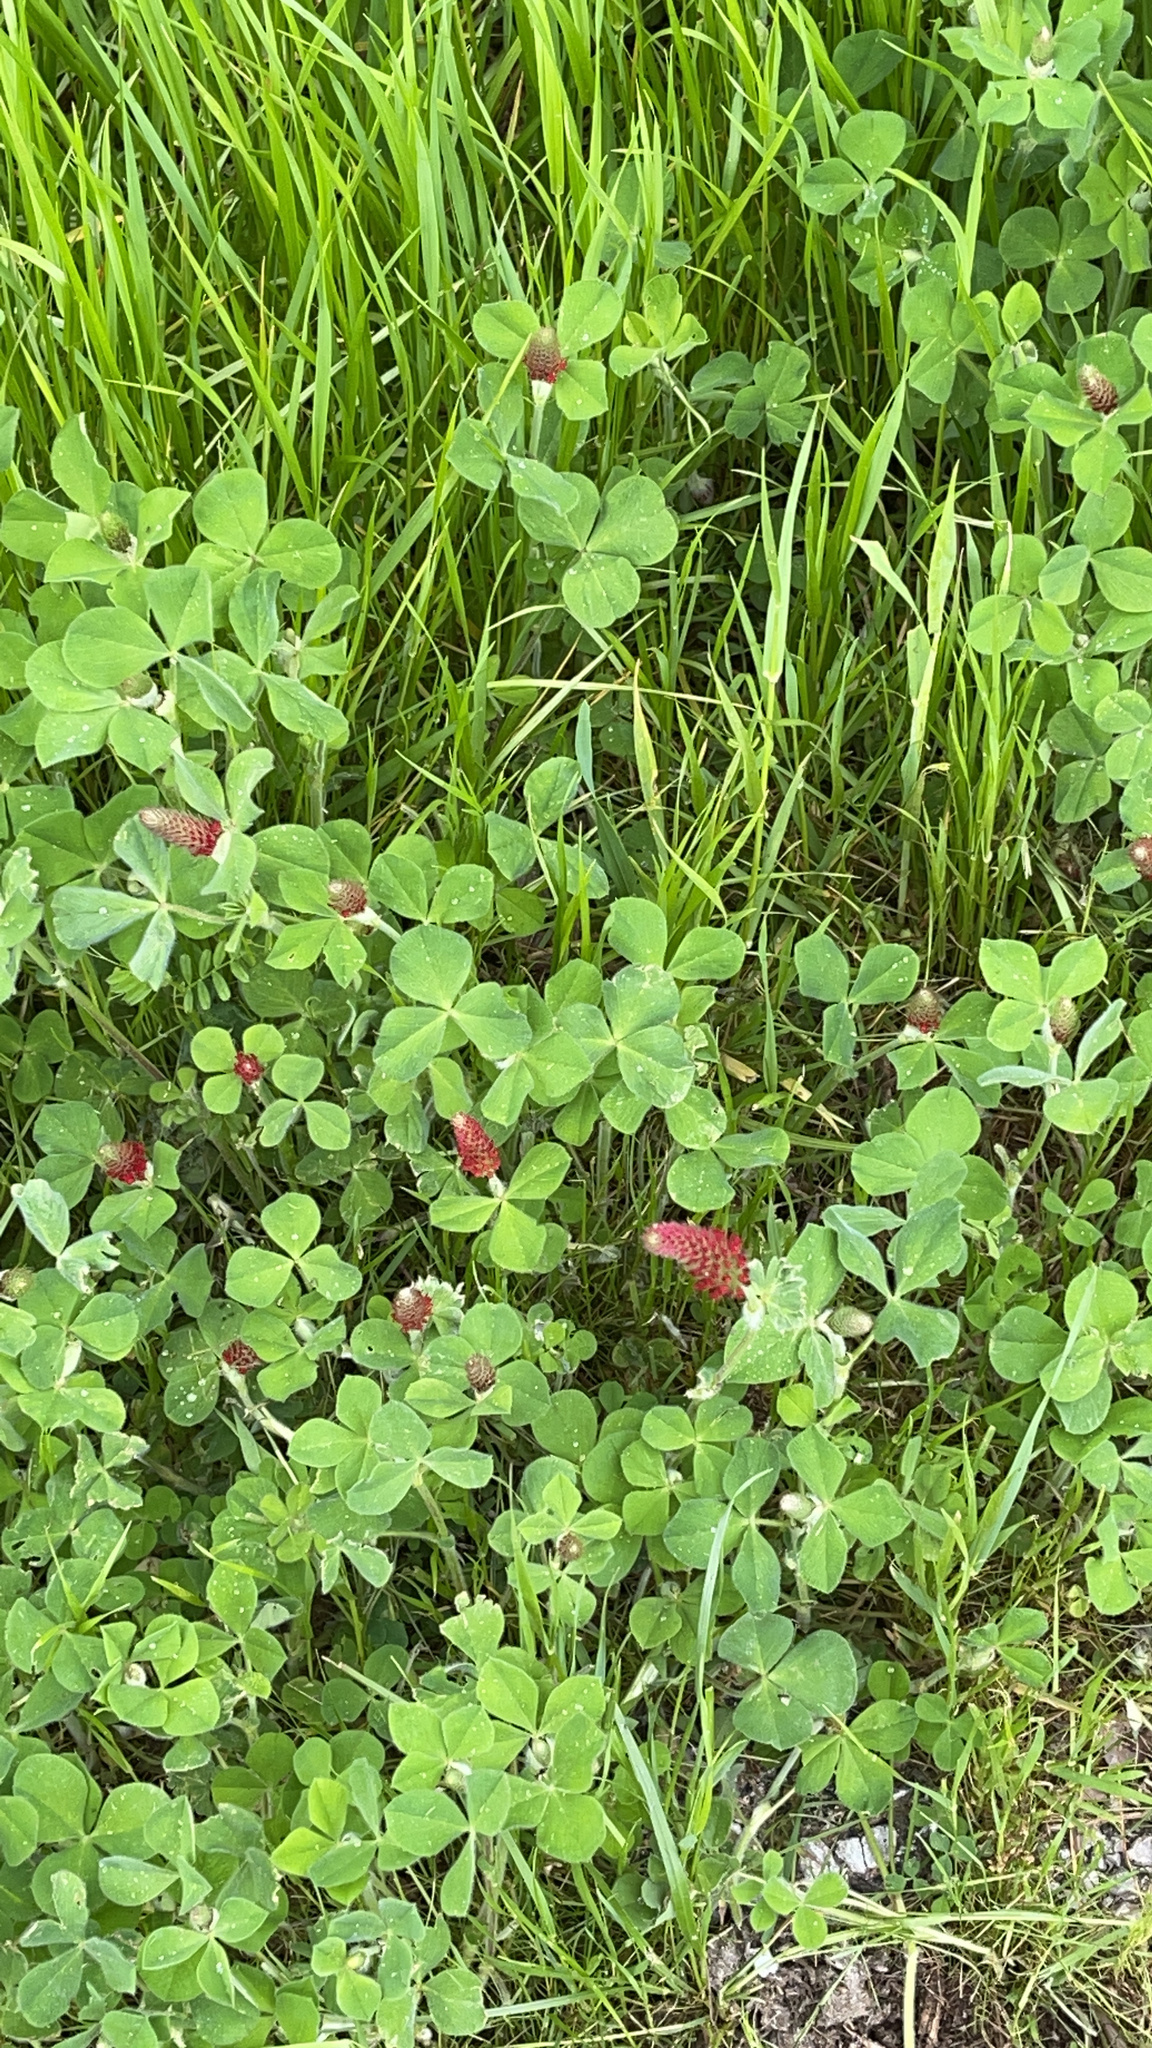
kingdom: Plantae
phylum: Tracheophyta
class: Magnoliopsida
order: Fabales
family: Fabaceae
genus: Trifolium
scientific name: Trifolium incarnatum
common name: Crimson clover
